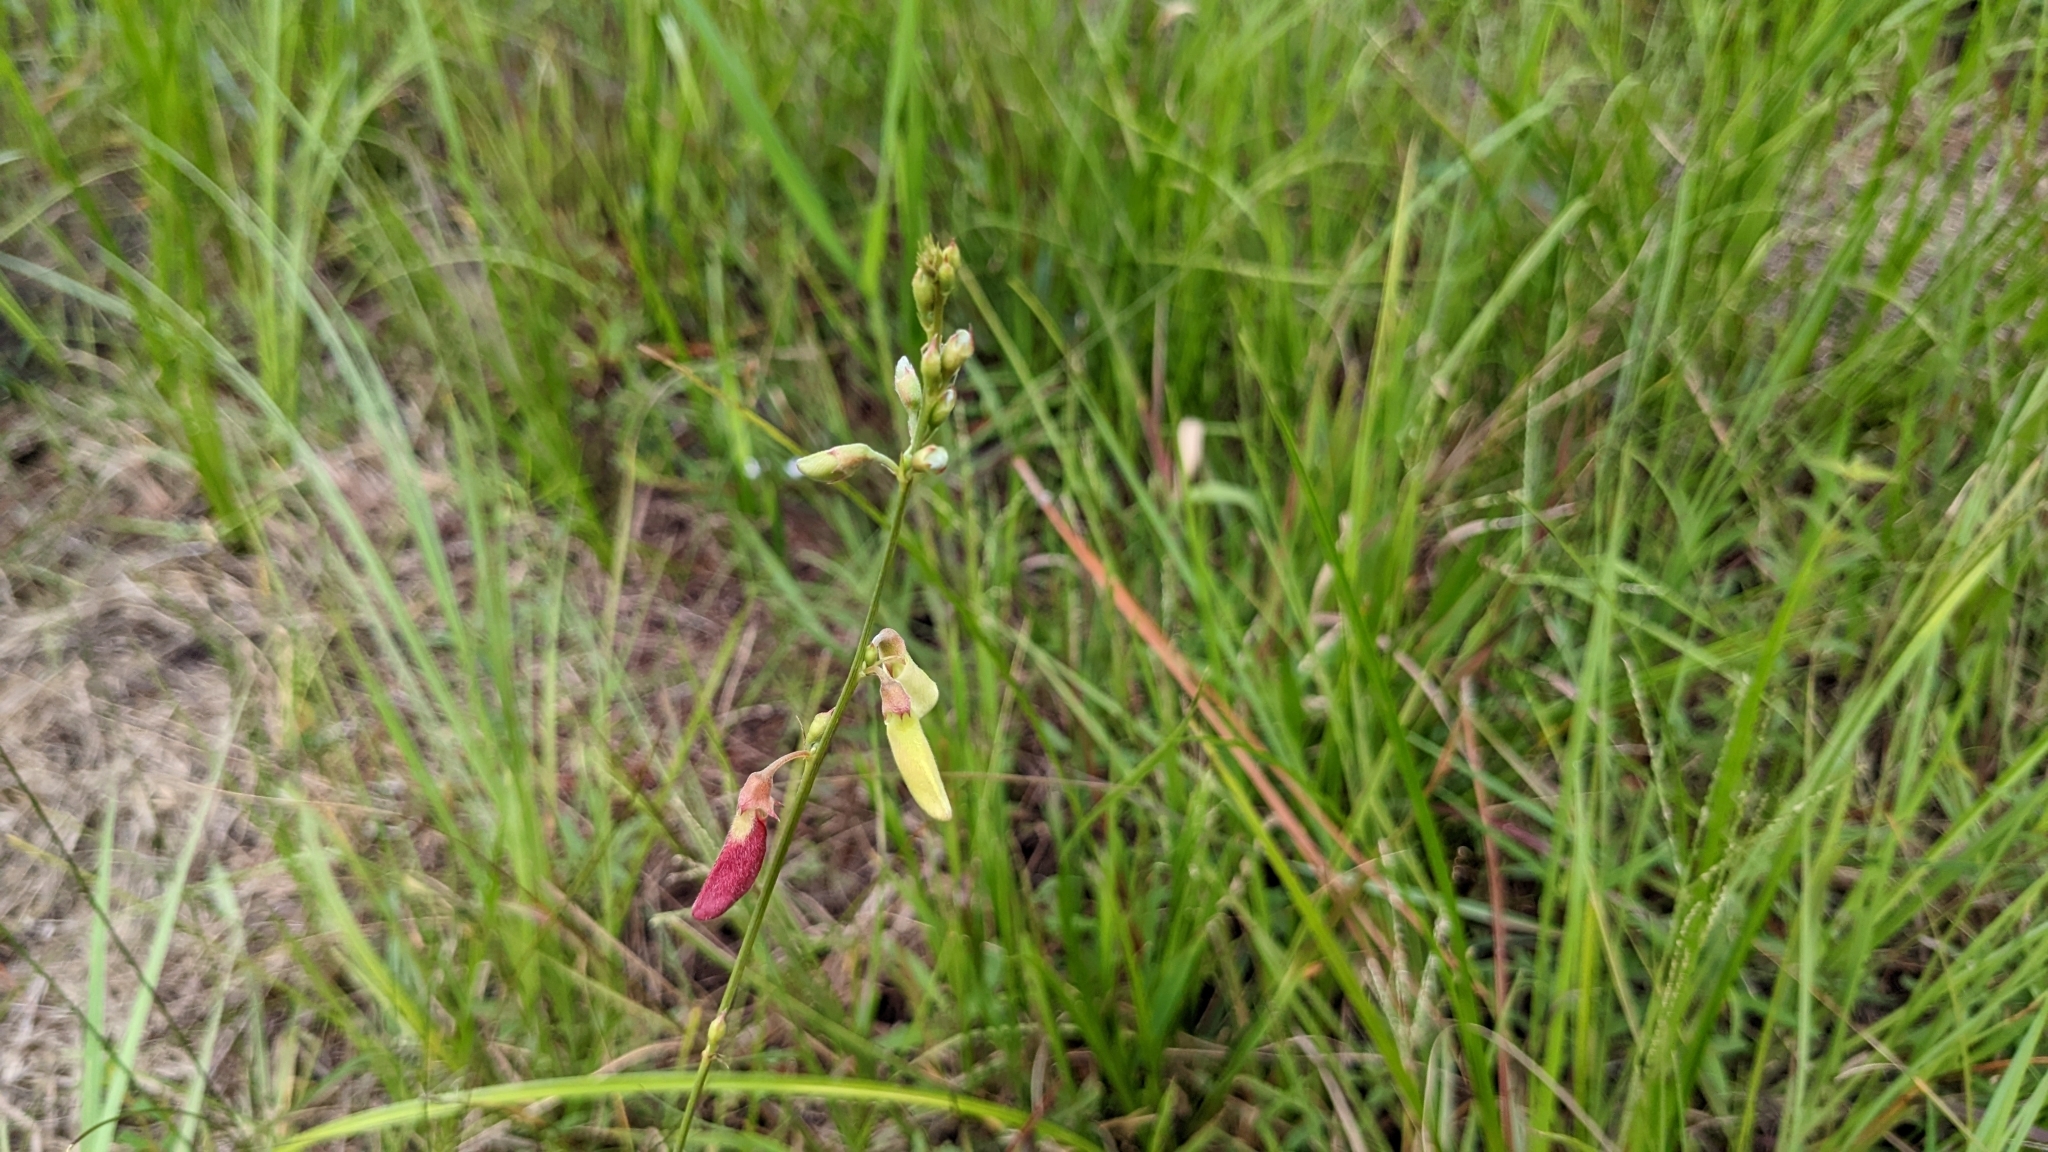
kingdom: Plantae
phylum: Tracheophyta
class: Magnoliopsida
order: Fabales
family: Fabaceae
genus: Tephrosia
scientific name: Tephrosia onobrychoides
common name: Multi-bloom hoary-pea
